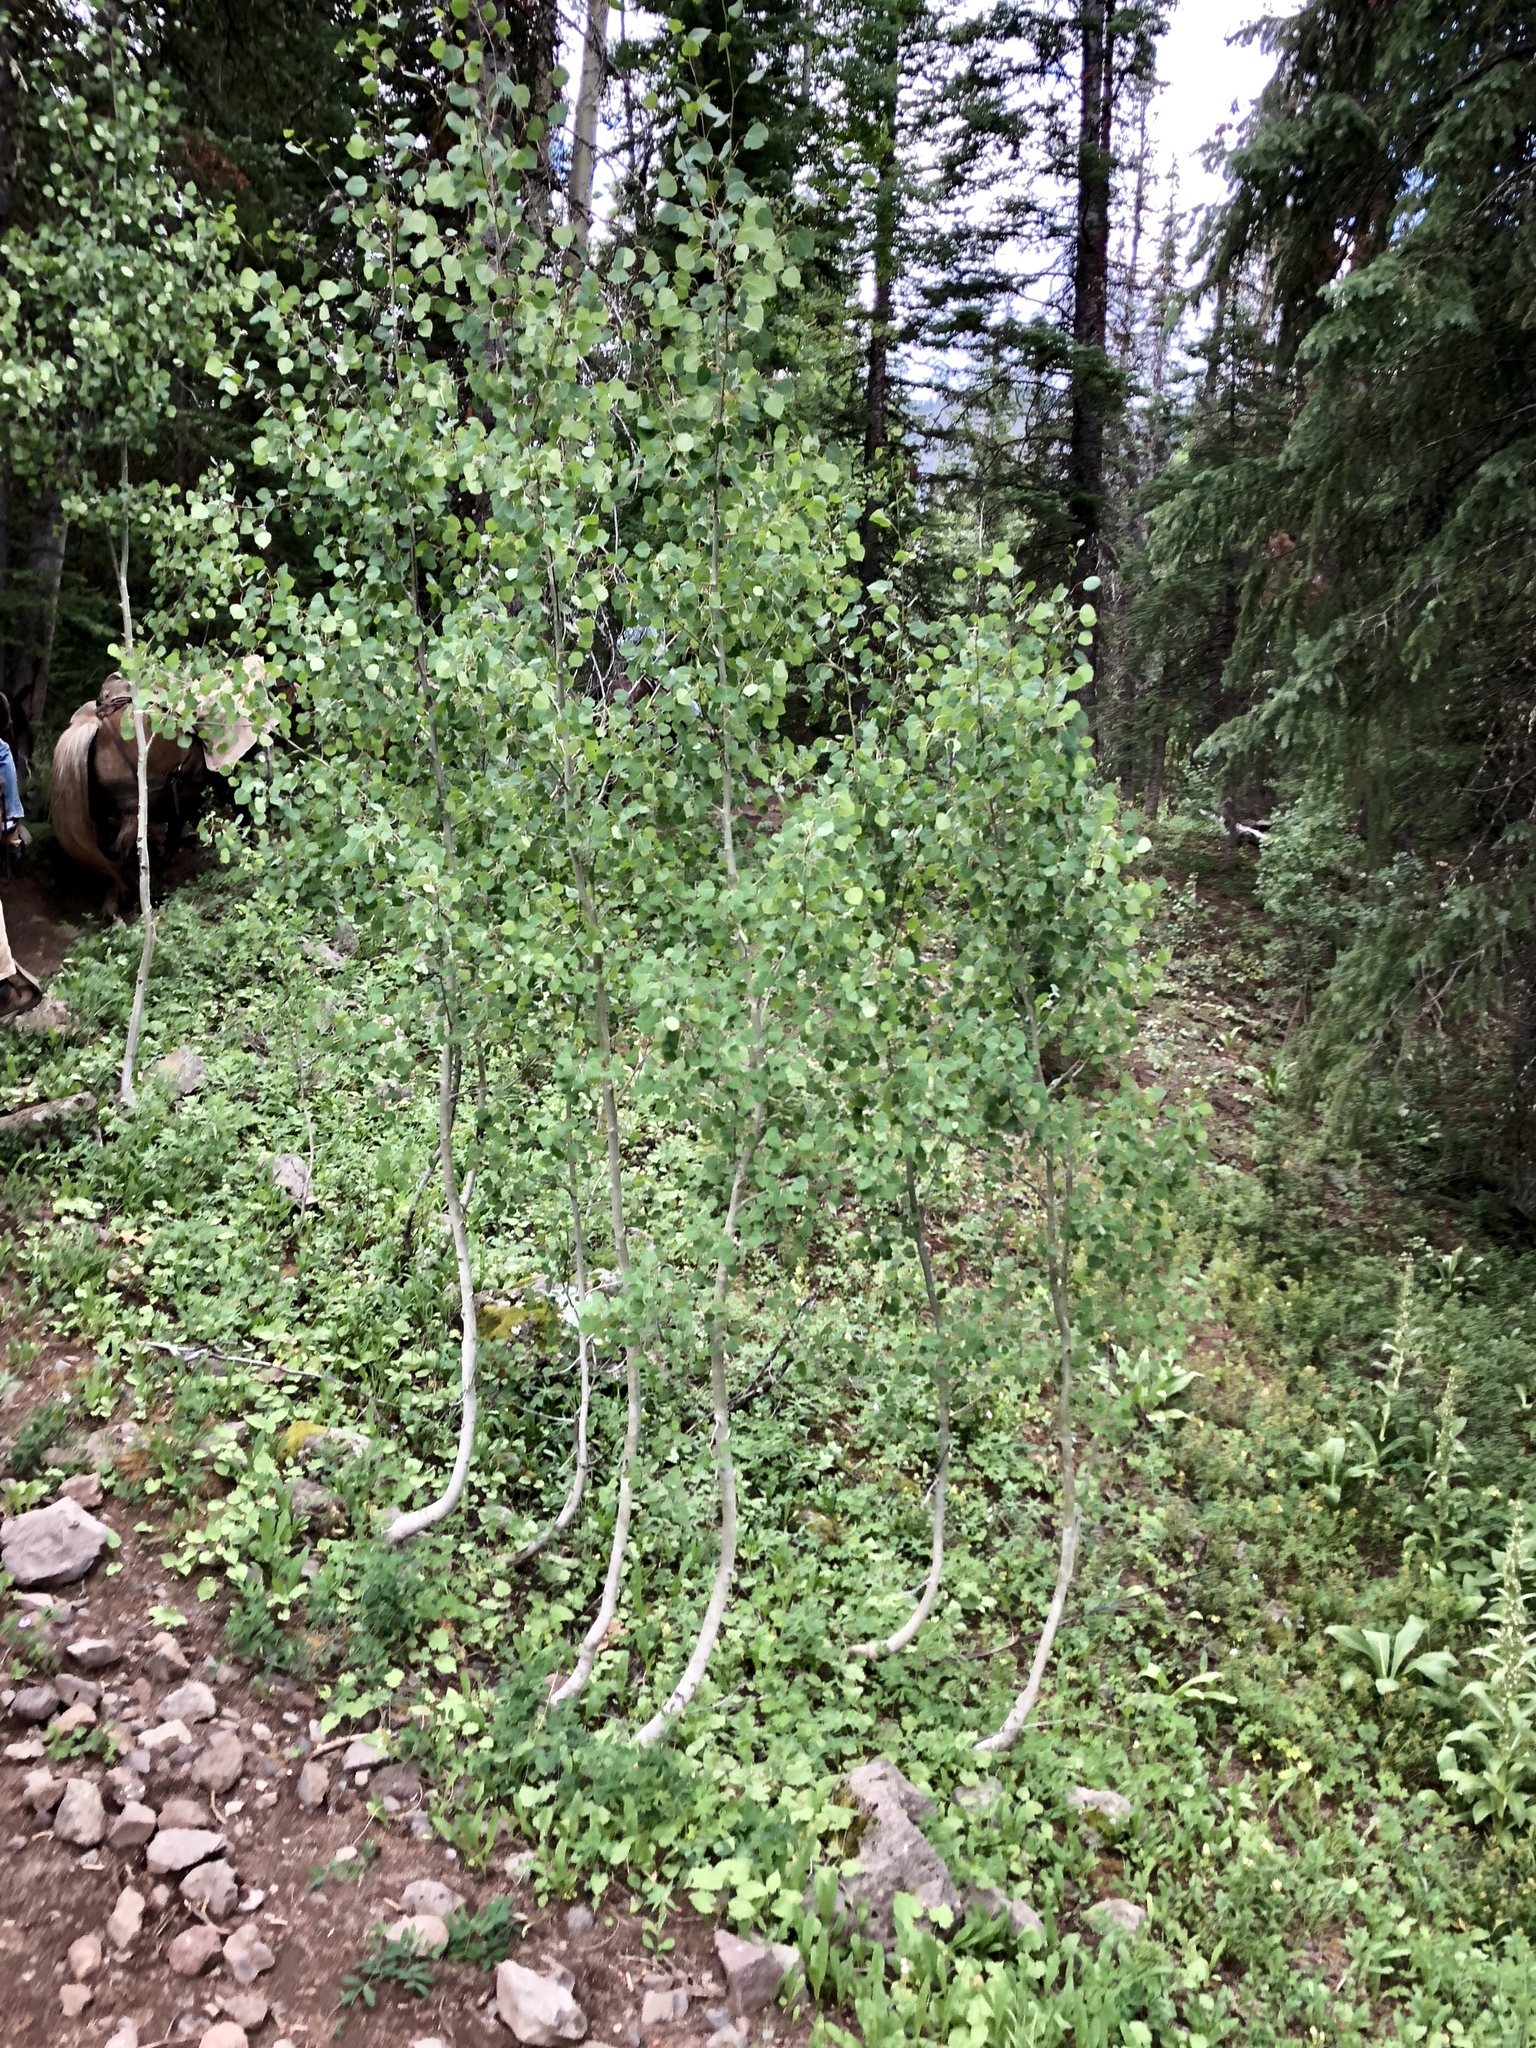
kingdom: Plantae
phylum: Tracheophyta
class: Magnoliopsida
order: Malpighiales
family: Salicaceae
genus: Populus
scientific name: Populus tremuloides
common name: Quaking aspen
